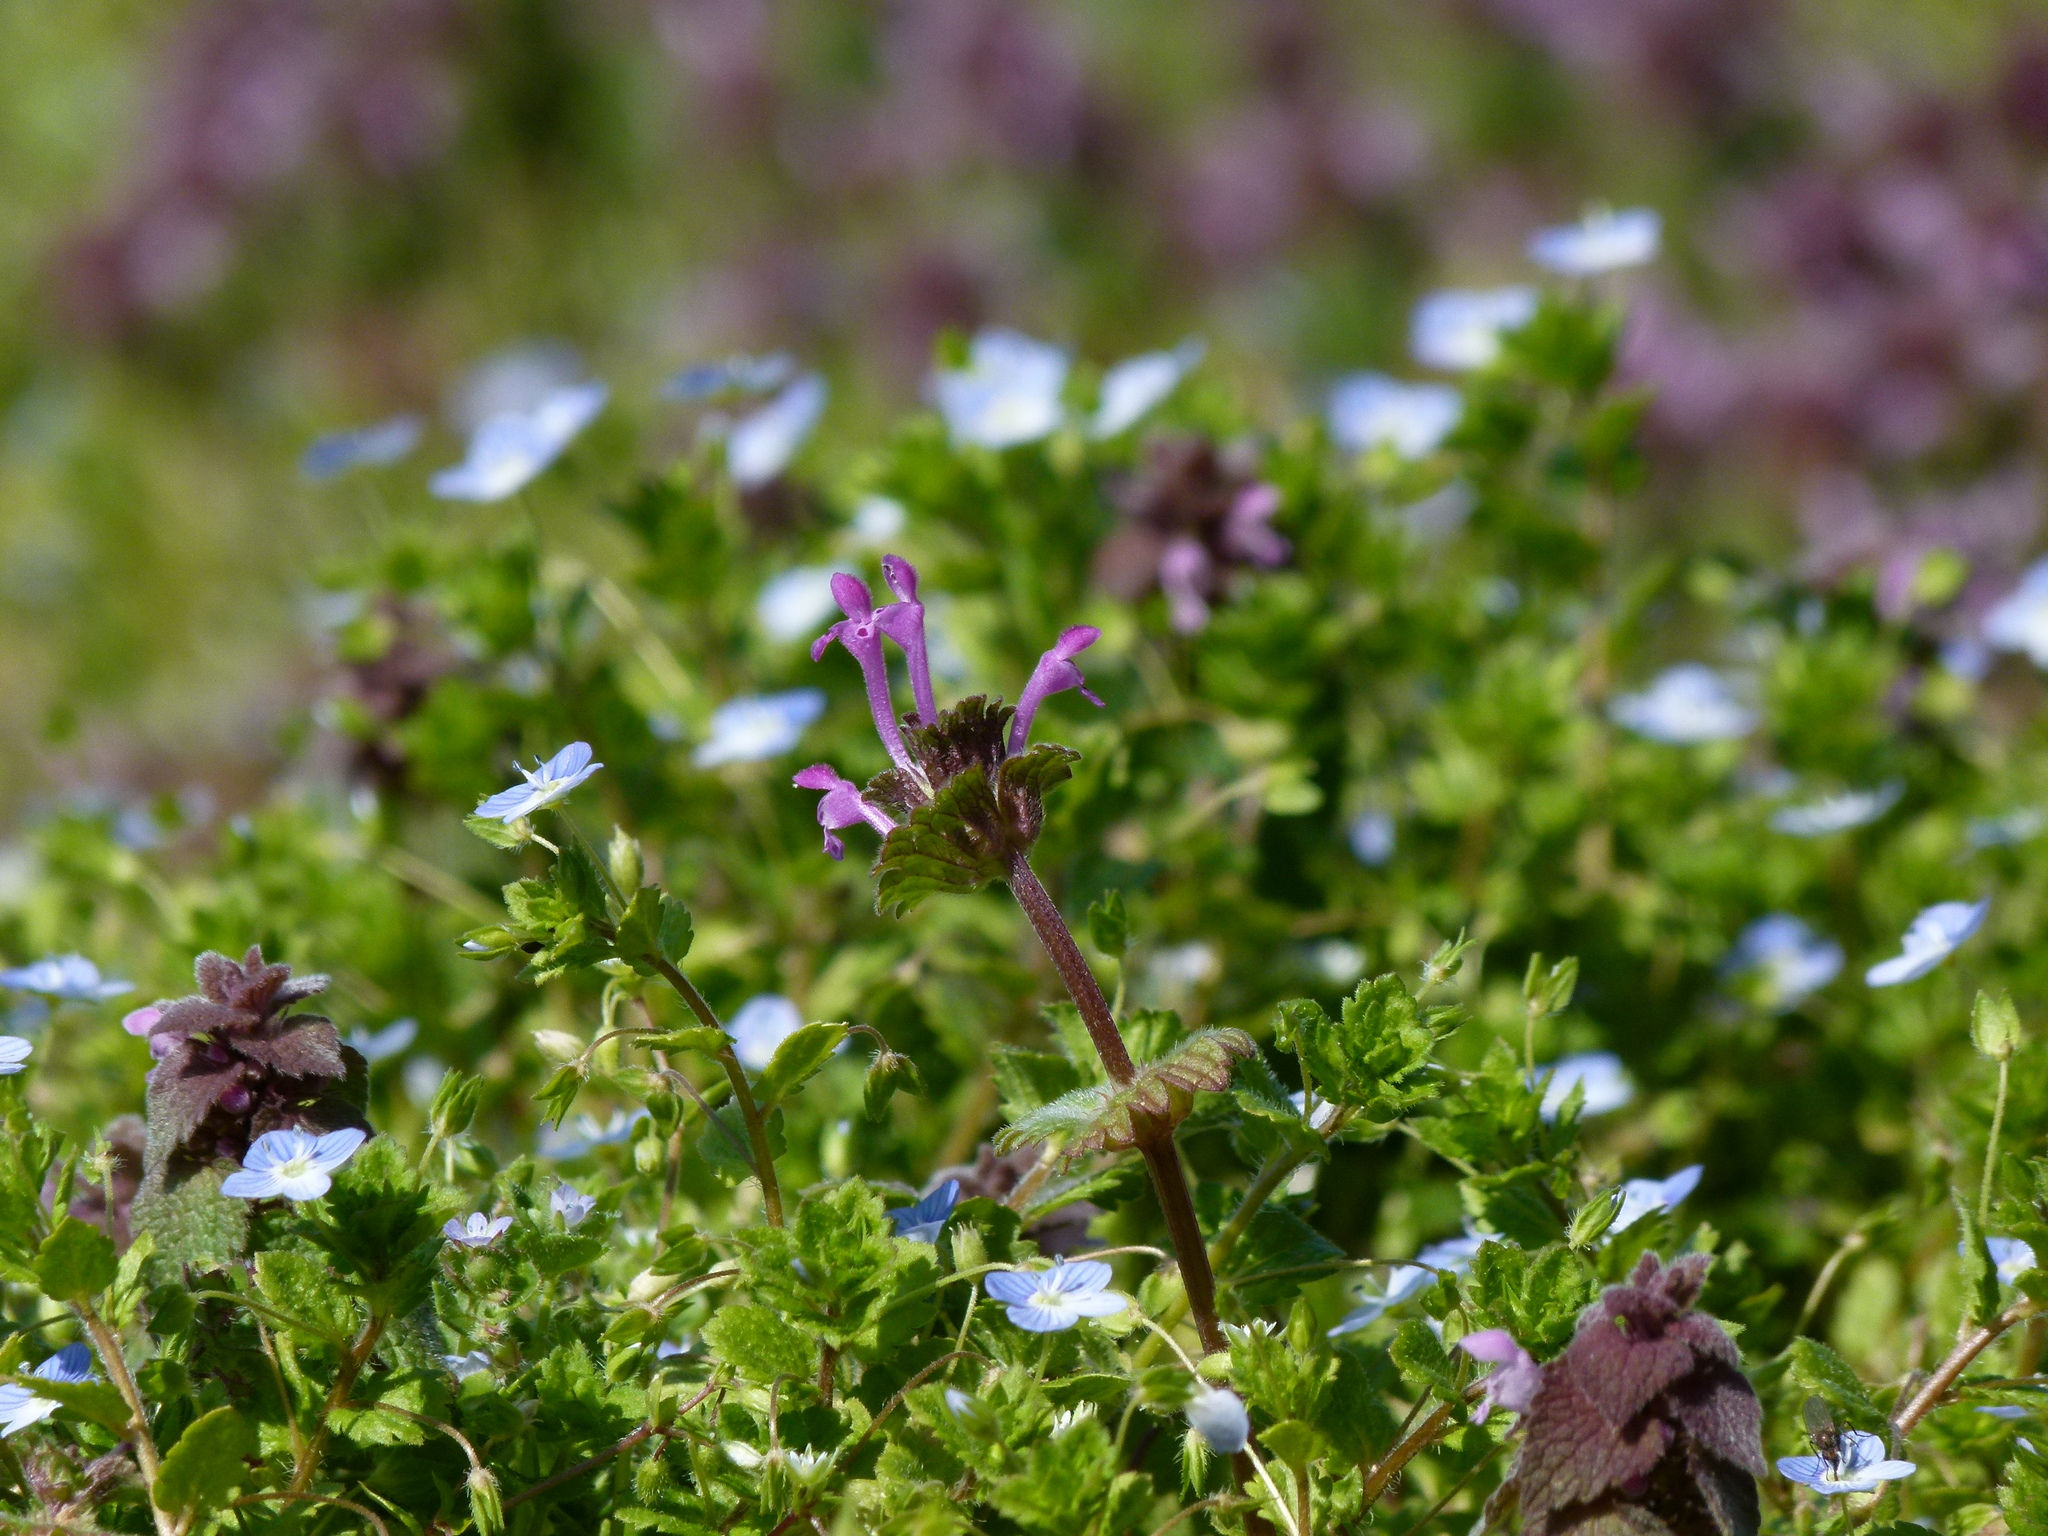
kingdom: Plantae
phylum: Tracheophyta
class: Magnoliopsida
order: Lamiales
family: Lamiaceae
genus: Lamium
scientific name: Lamium amplexicaule
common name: Henbit dead-nettle
